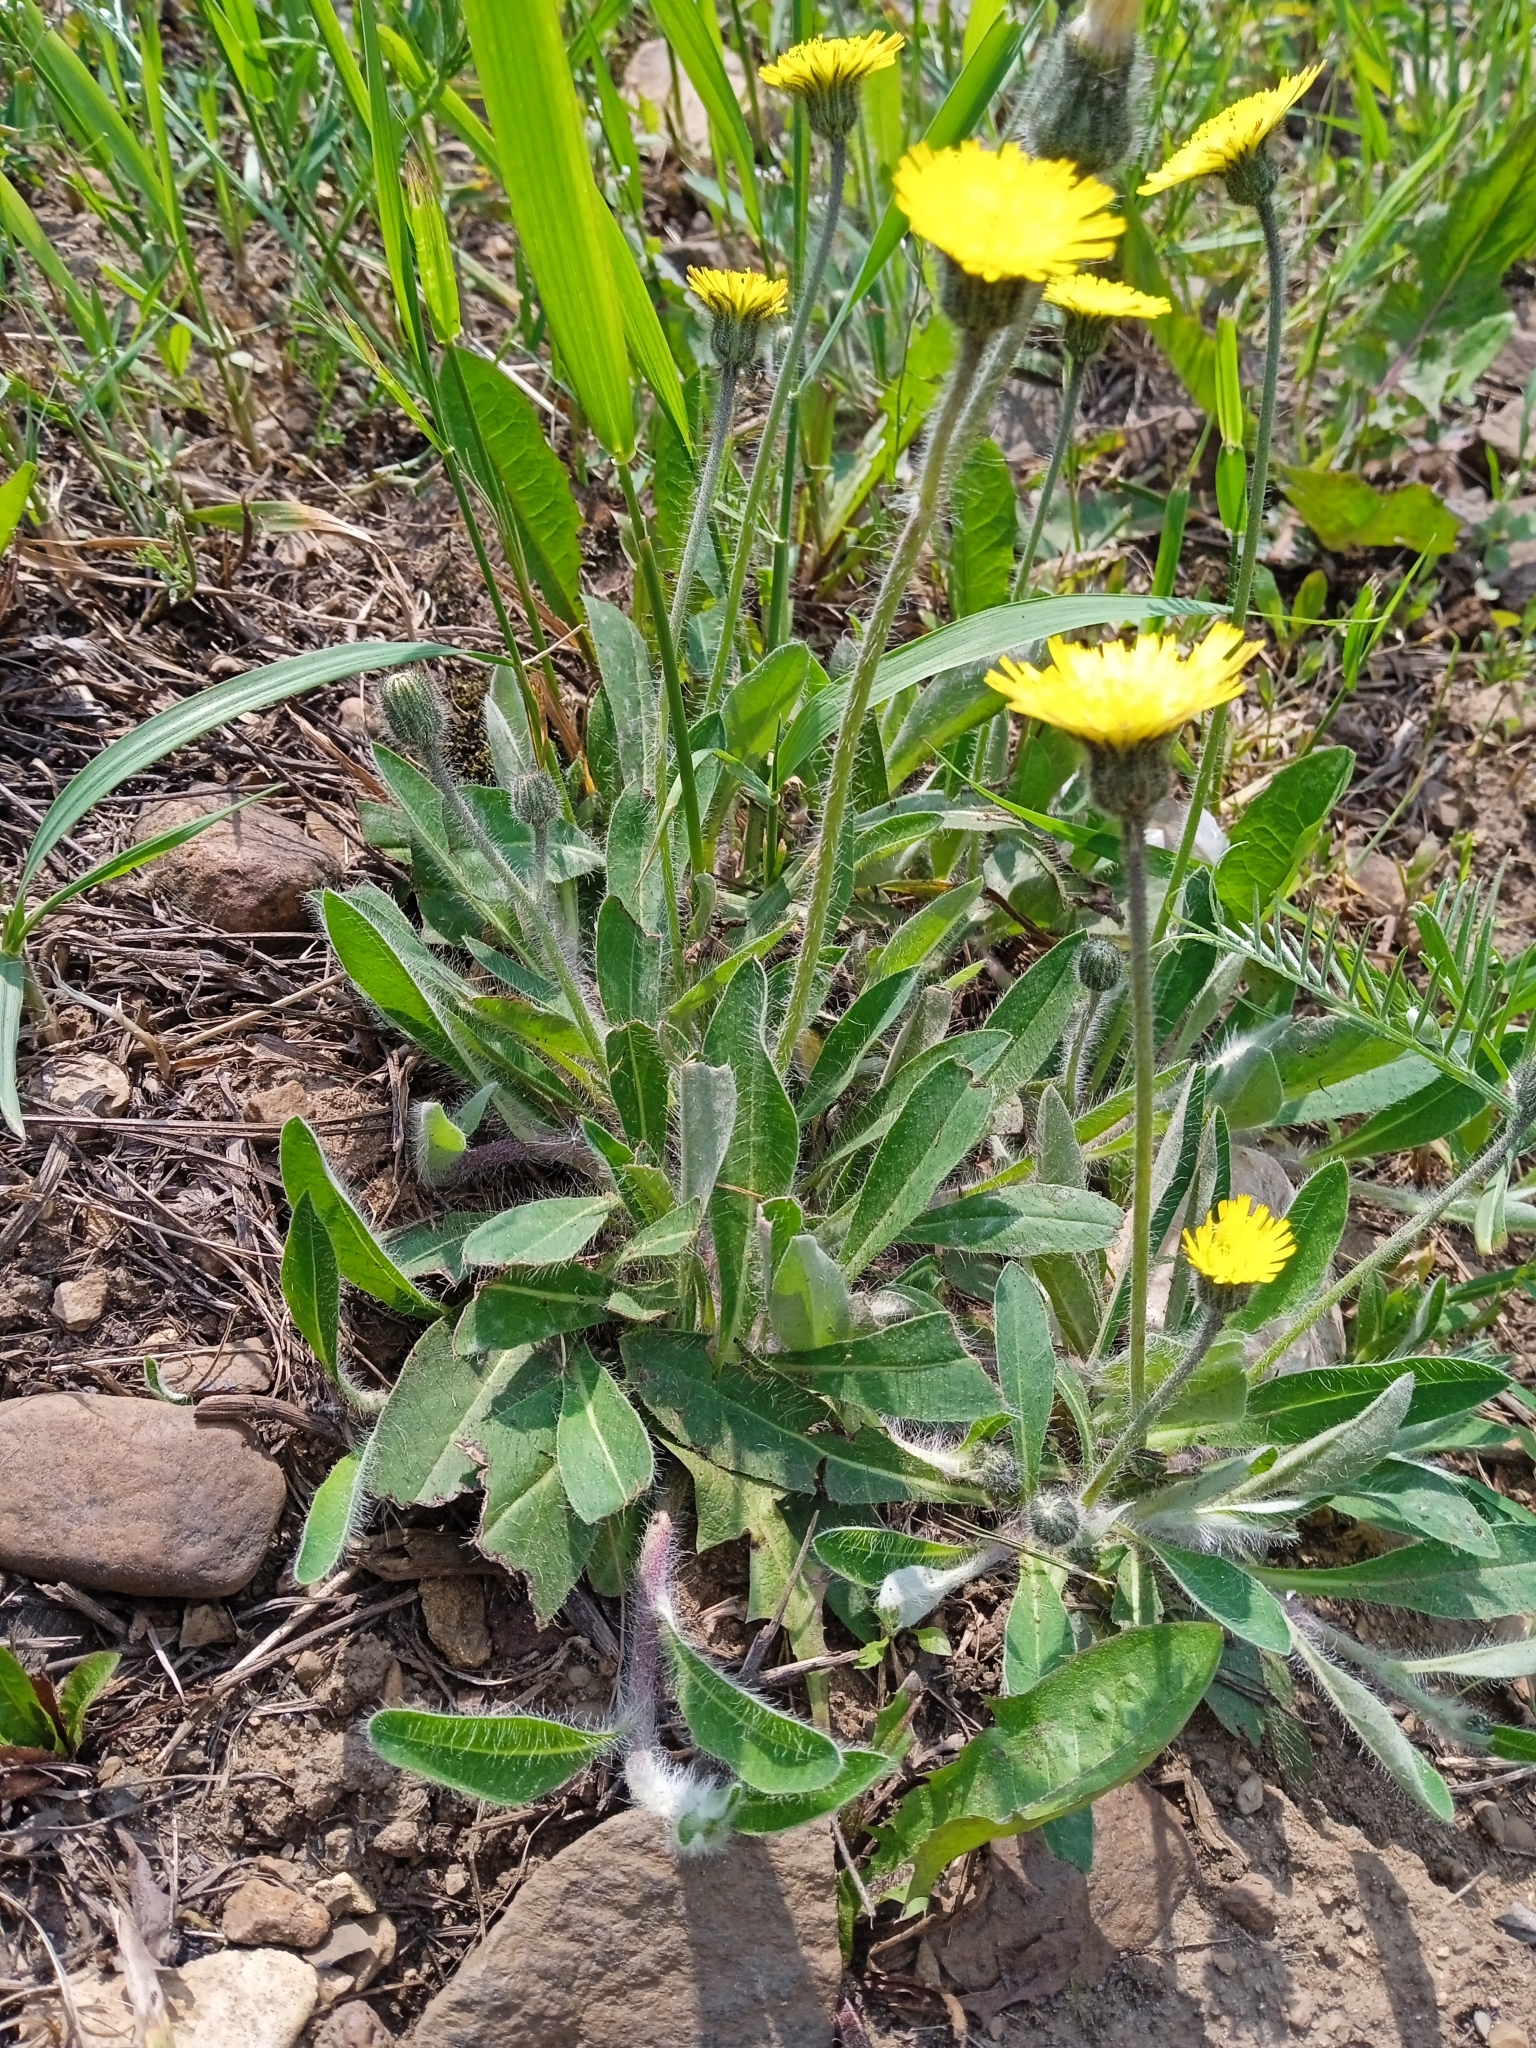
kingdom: Plantae
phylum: Tracheophyta
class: Magnoliopsida
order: Asterales
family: Asteraceae
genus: Pilosella
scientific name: Pilosella officinarum
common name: Mouse-ear hawkweed
